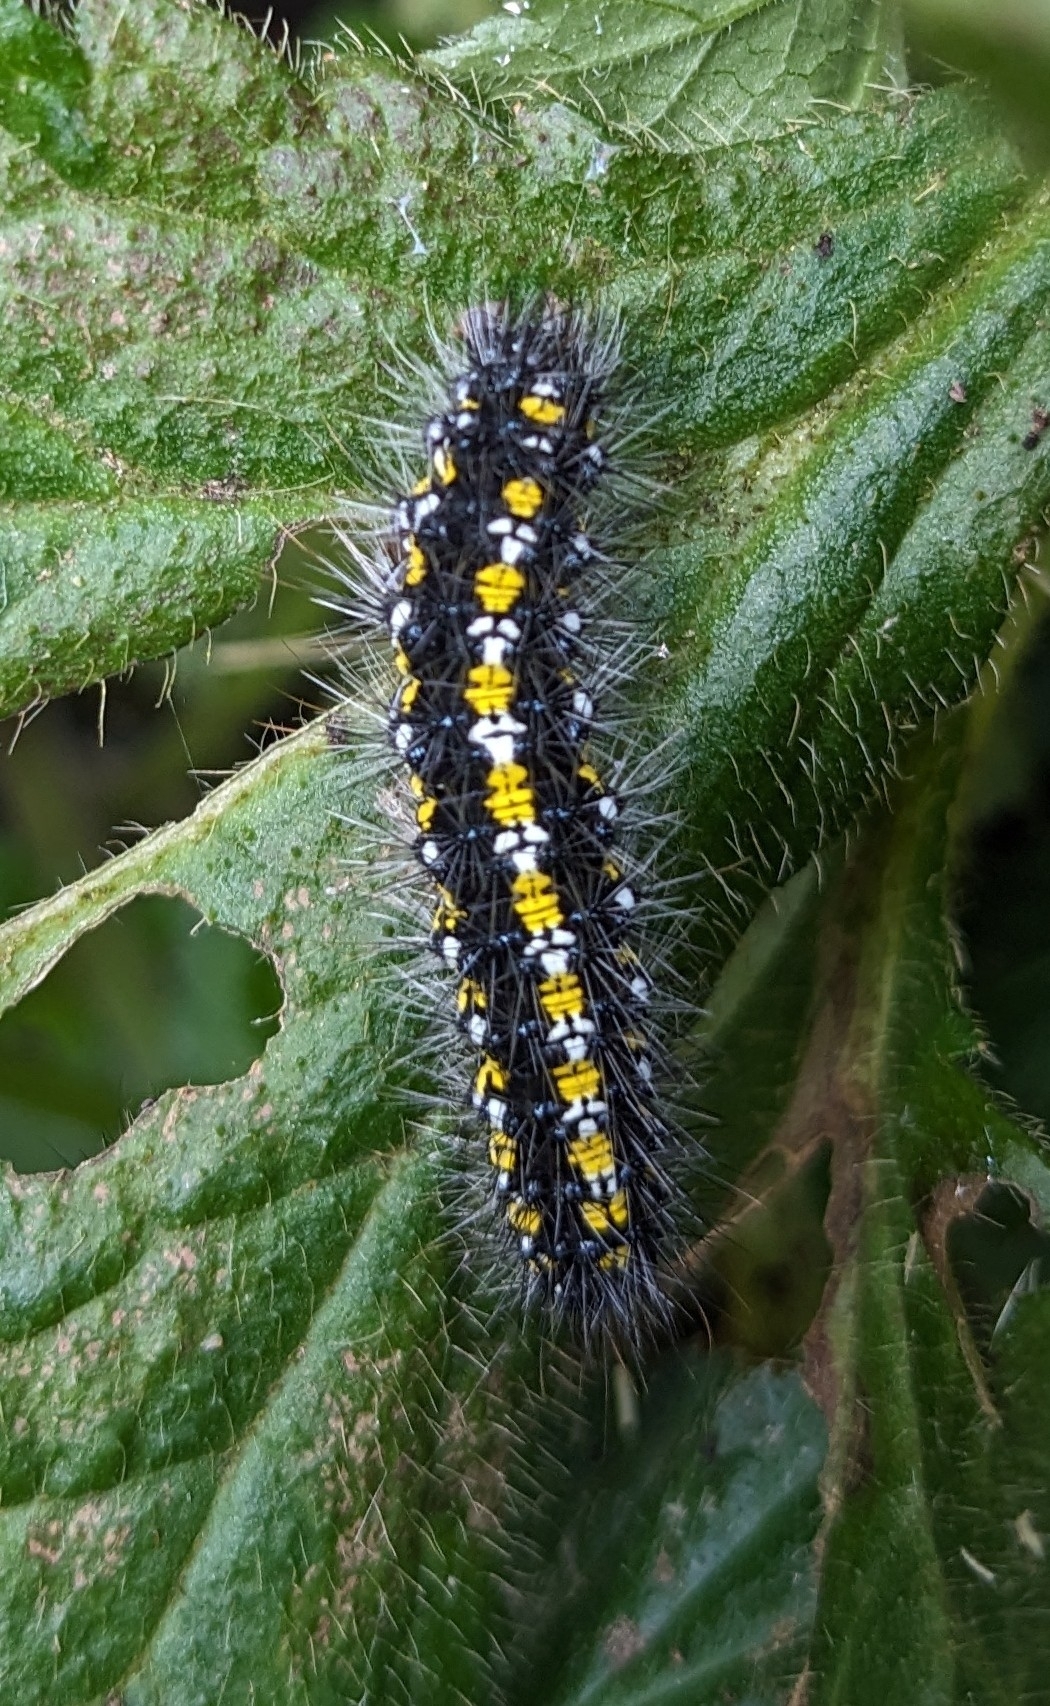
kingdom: Animalia
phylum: Arthropoda
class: Insecta
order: Lepidoptera
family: Erebidae
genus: Callimorpha
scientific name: Callimorpha dominula
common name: Scarlet tiger
